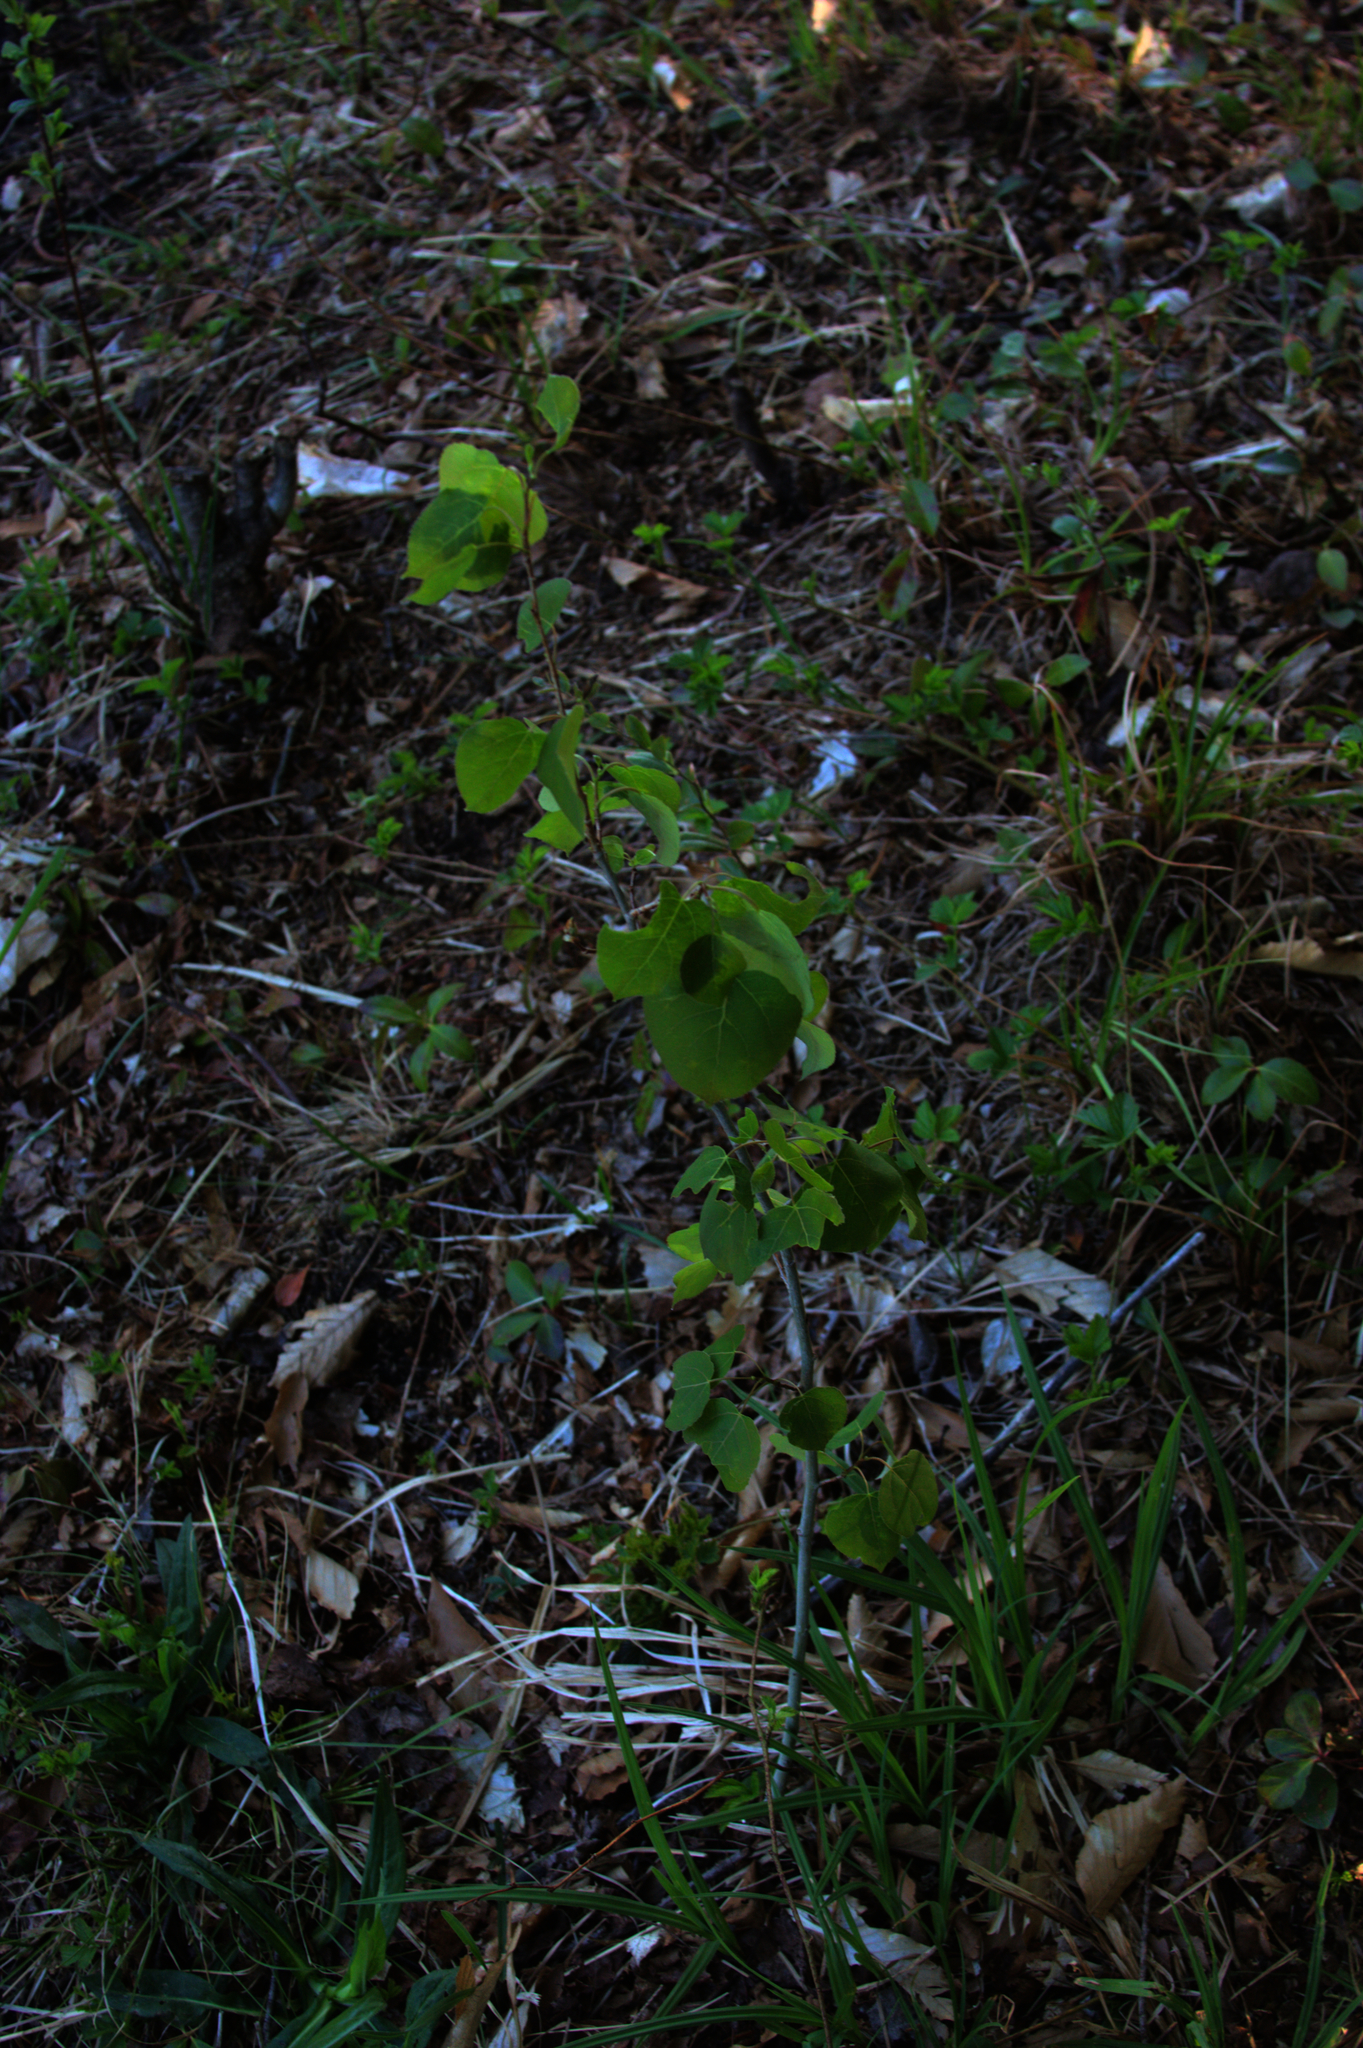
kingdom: Plantae
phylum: Tracheophyta
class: Magnoliopsida
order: Malpighiales
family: Salicaceae
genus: Populus
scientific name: Populus tremuloides
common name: Quaking aspen
